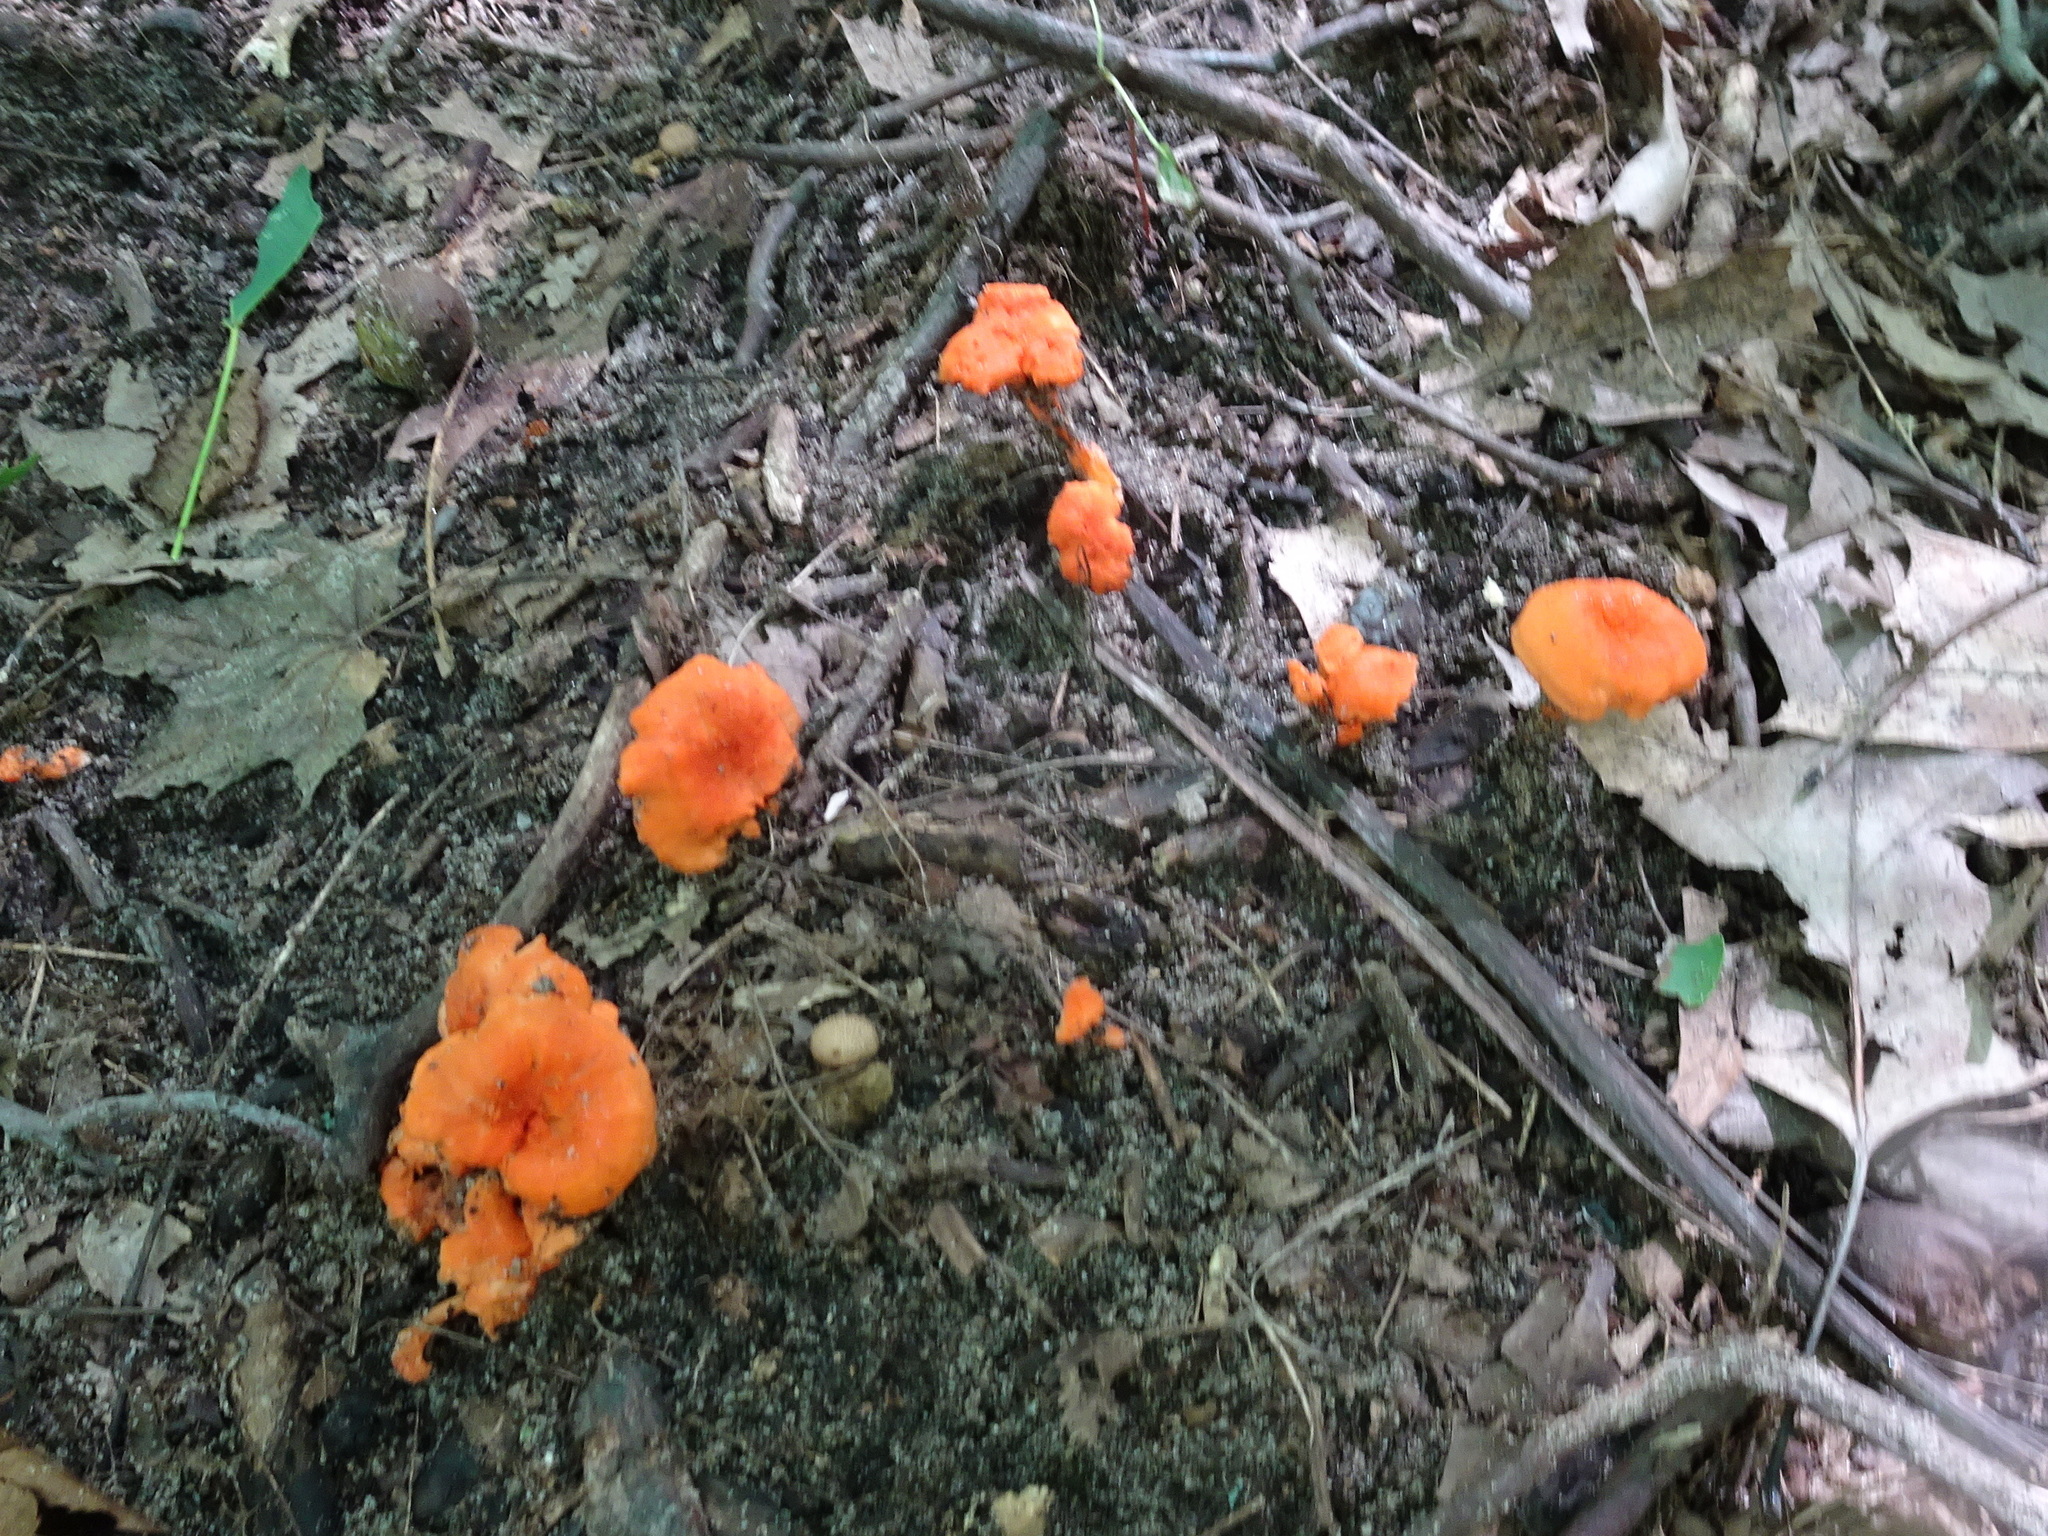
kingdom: Fungi
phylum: Basidiomycota
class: Agaricomycetes
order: Cantharellales
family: Hydnaceae
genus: Cantharellus
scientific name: Cantharellus cinnabarinus
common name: Cinnabar chanterelle
